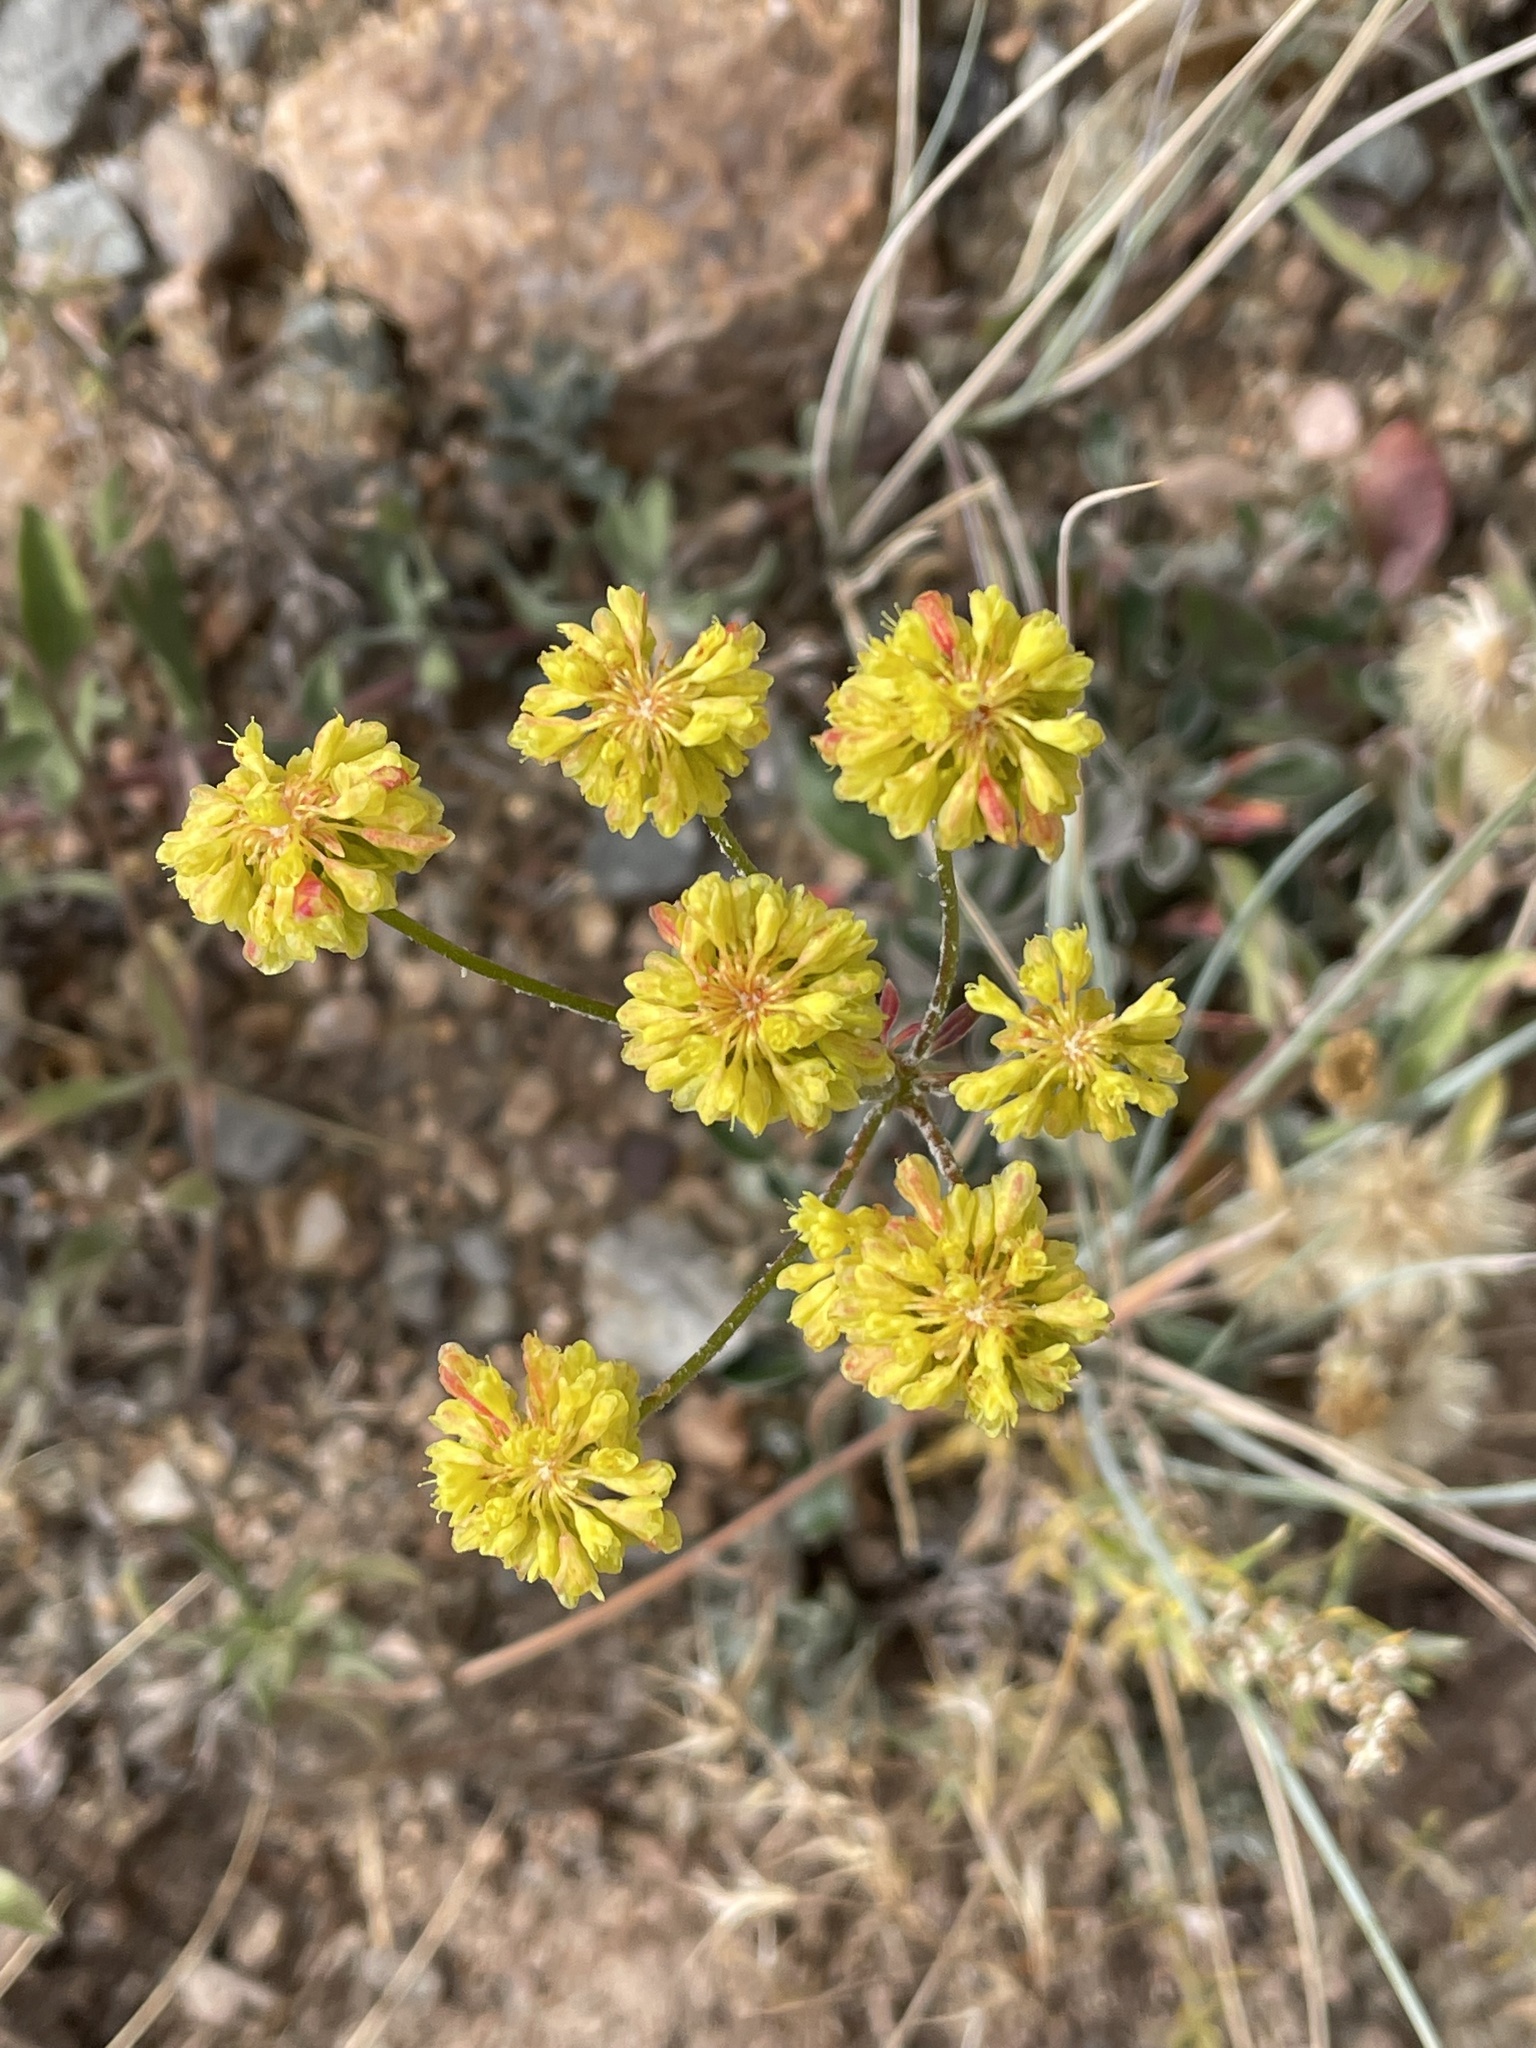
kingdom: Plantae
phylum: Tracheophyta
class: Magnoliopsida
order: Caryophyllales
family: Polygonaceae
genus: Eriogonum
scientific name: Eriogonum umbellatum
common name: Sulfur-buckwheat
